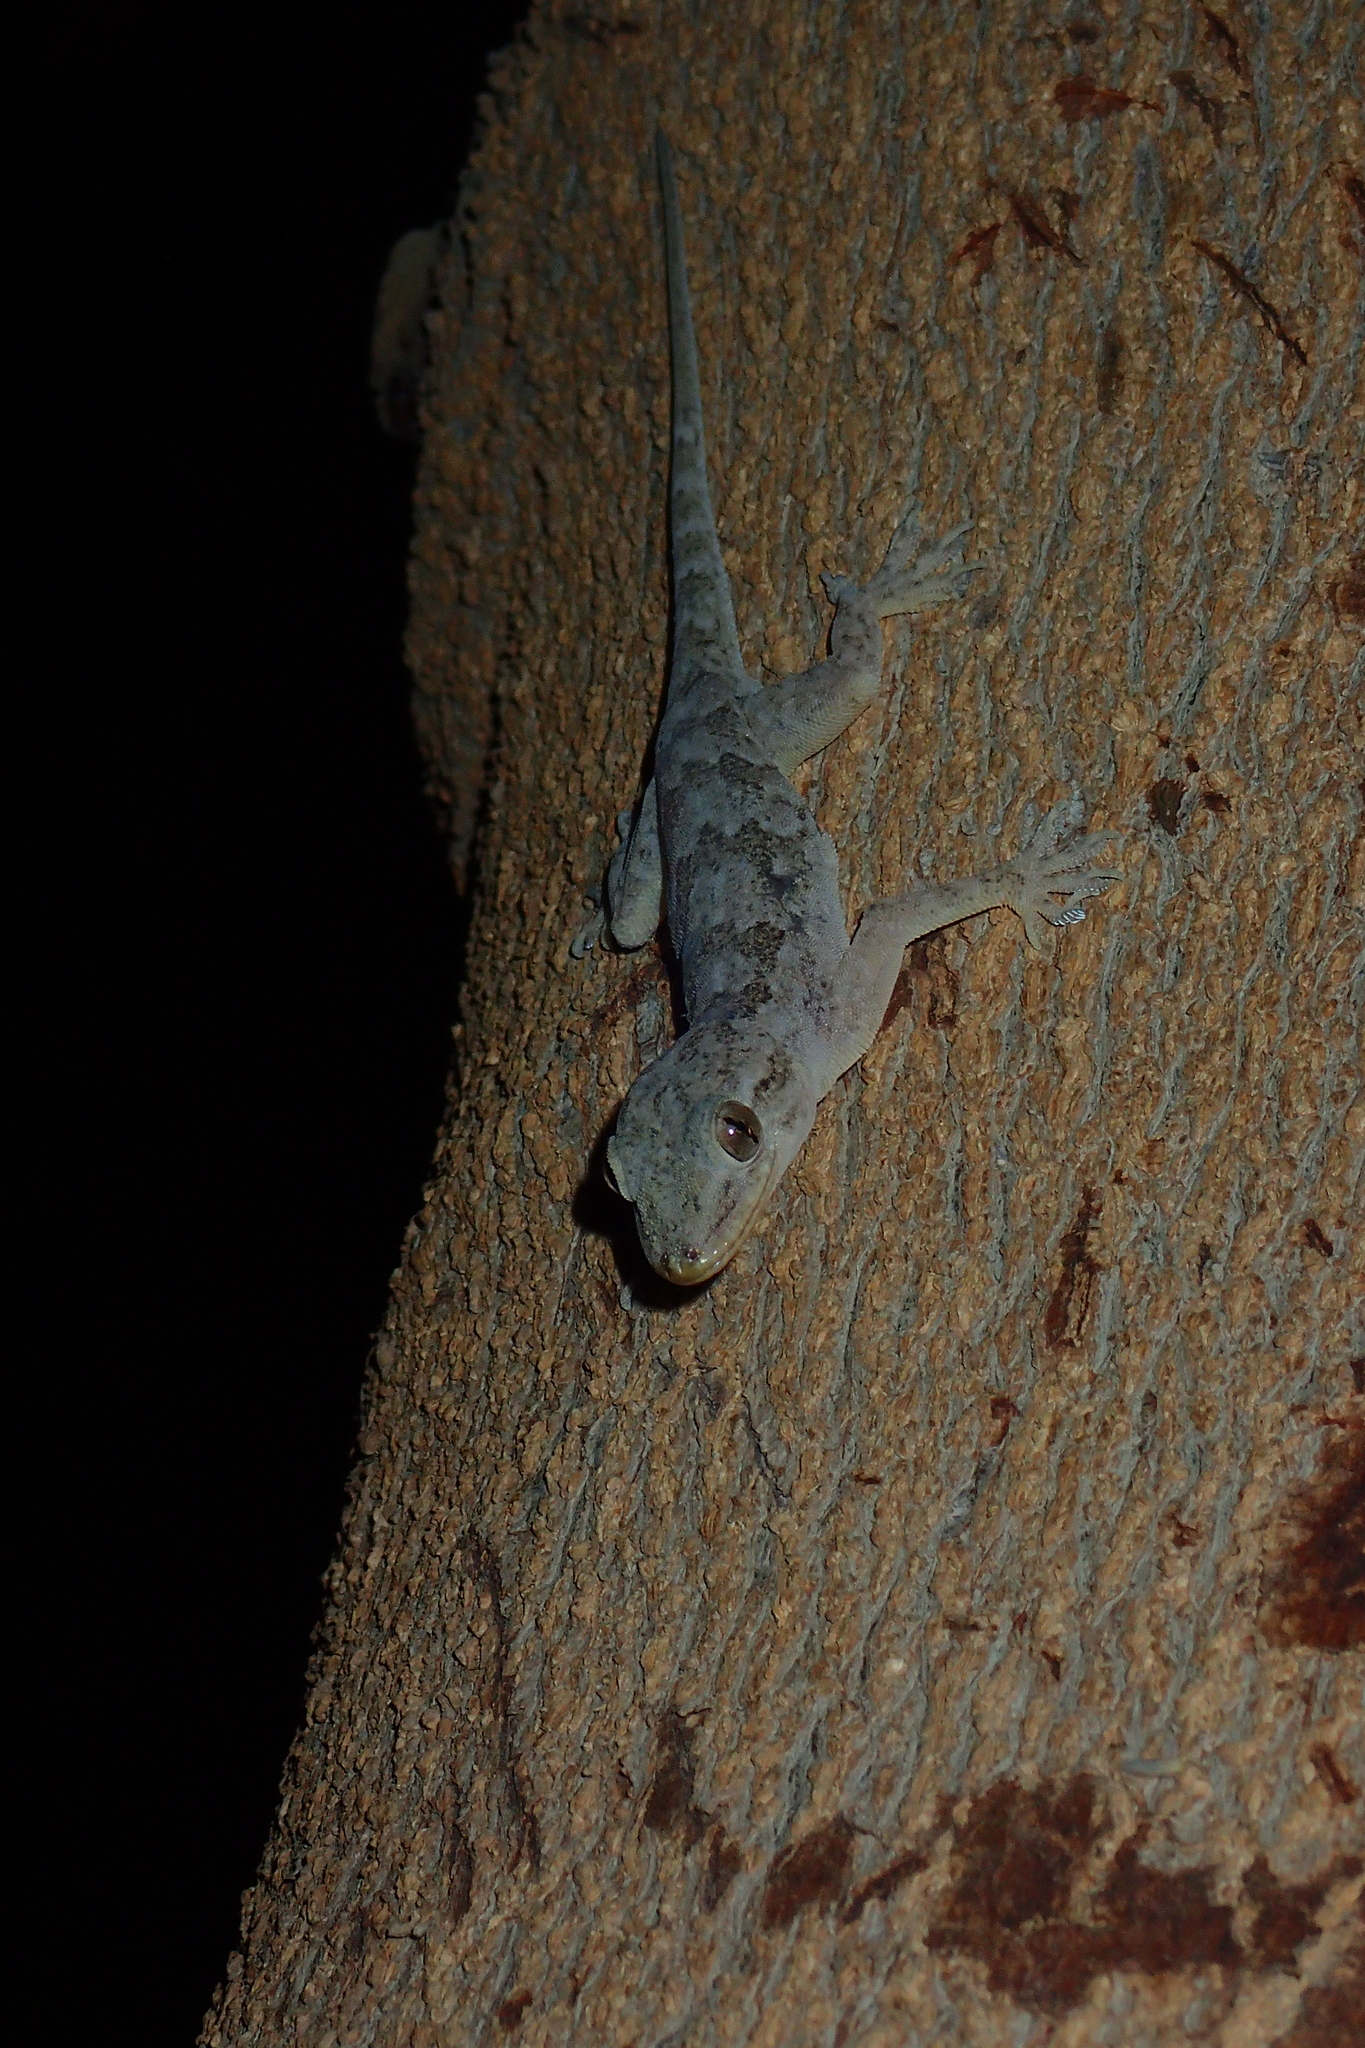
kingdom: Animalia
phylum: Chordata
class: Squamata
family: Gekkonidae
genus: Hemidactylus
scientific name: Hemidactylus flaviviridis
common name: Northern house gecko
